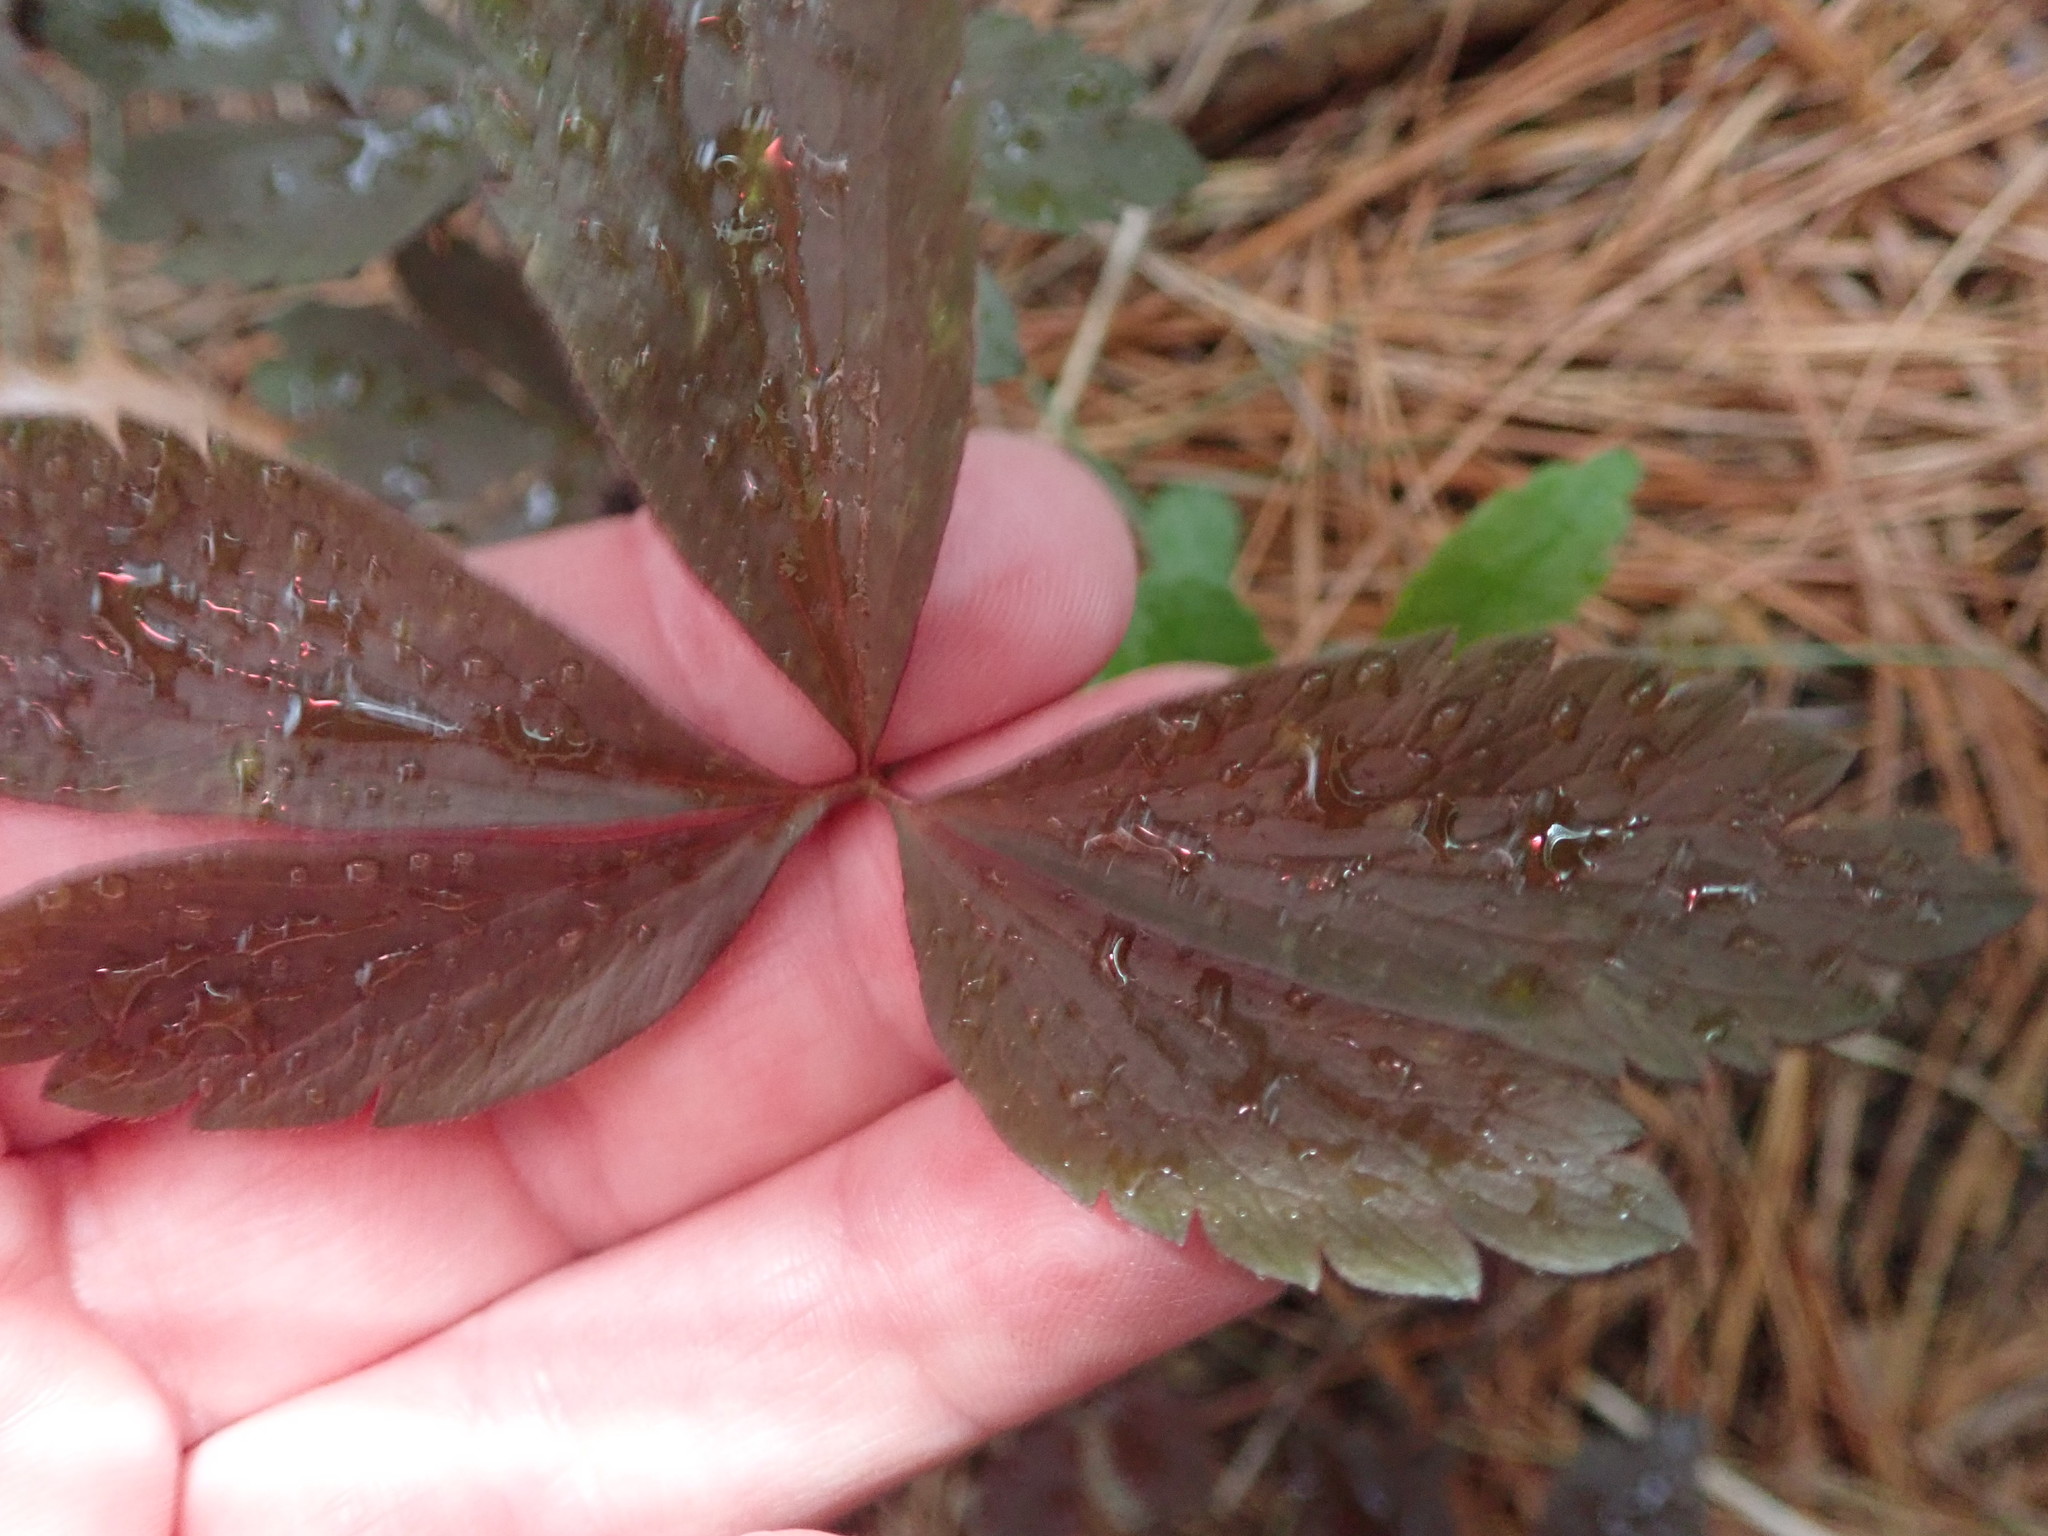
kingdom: Plantae
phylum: Tracheophyta
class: Magnoliopsida
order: Ranunculales
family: Ranunculaceae
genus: Anemone
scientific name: Anemone quinquefolia
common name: Wood anemone
